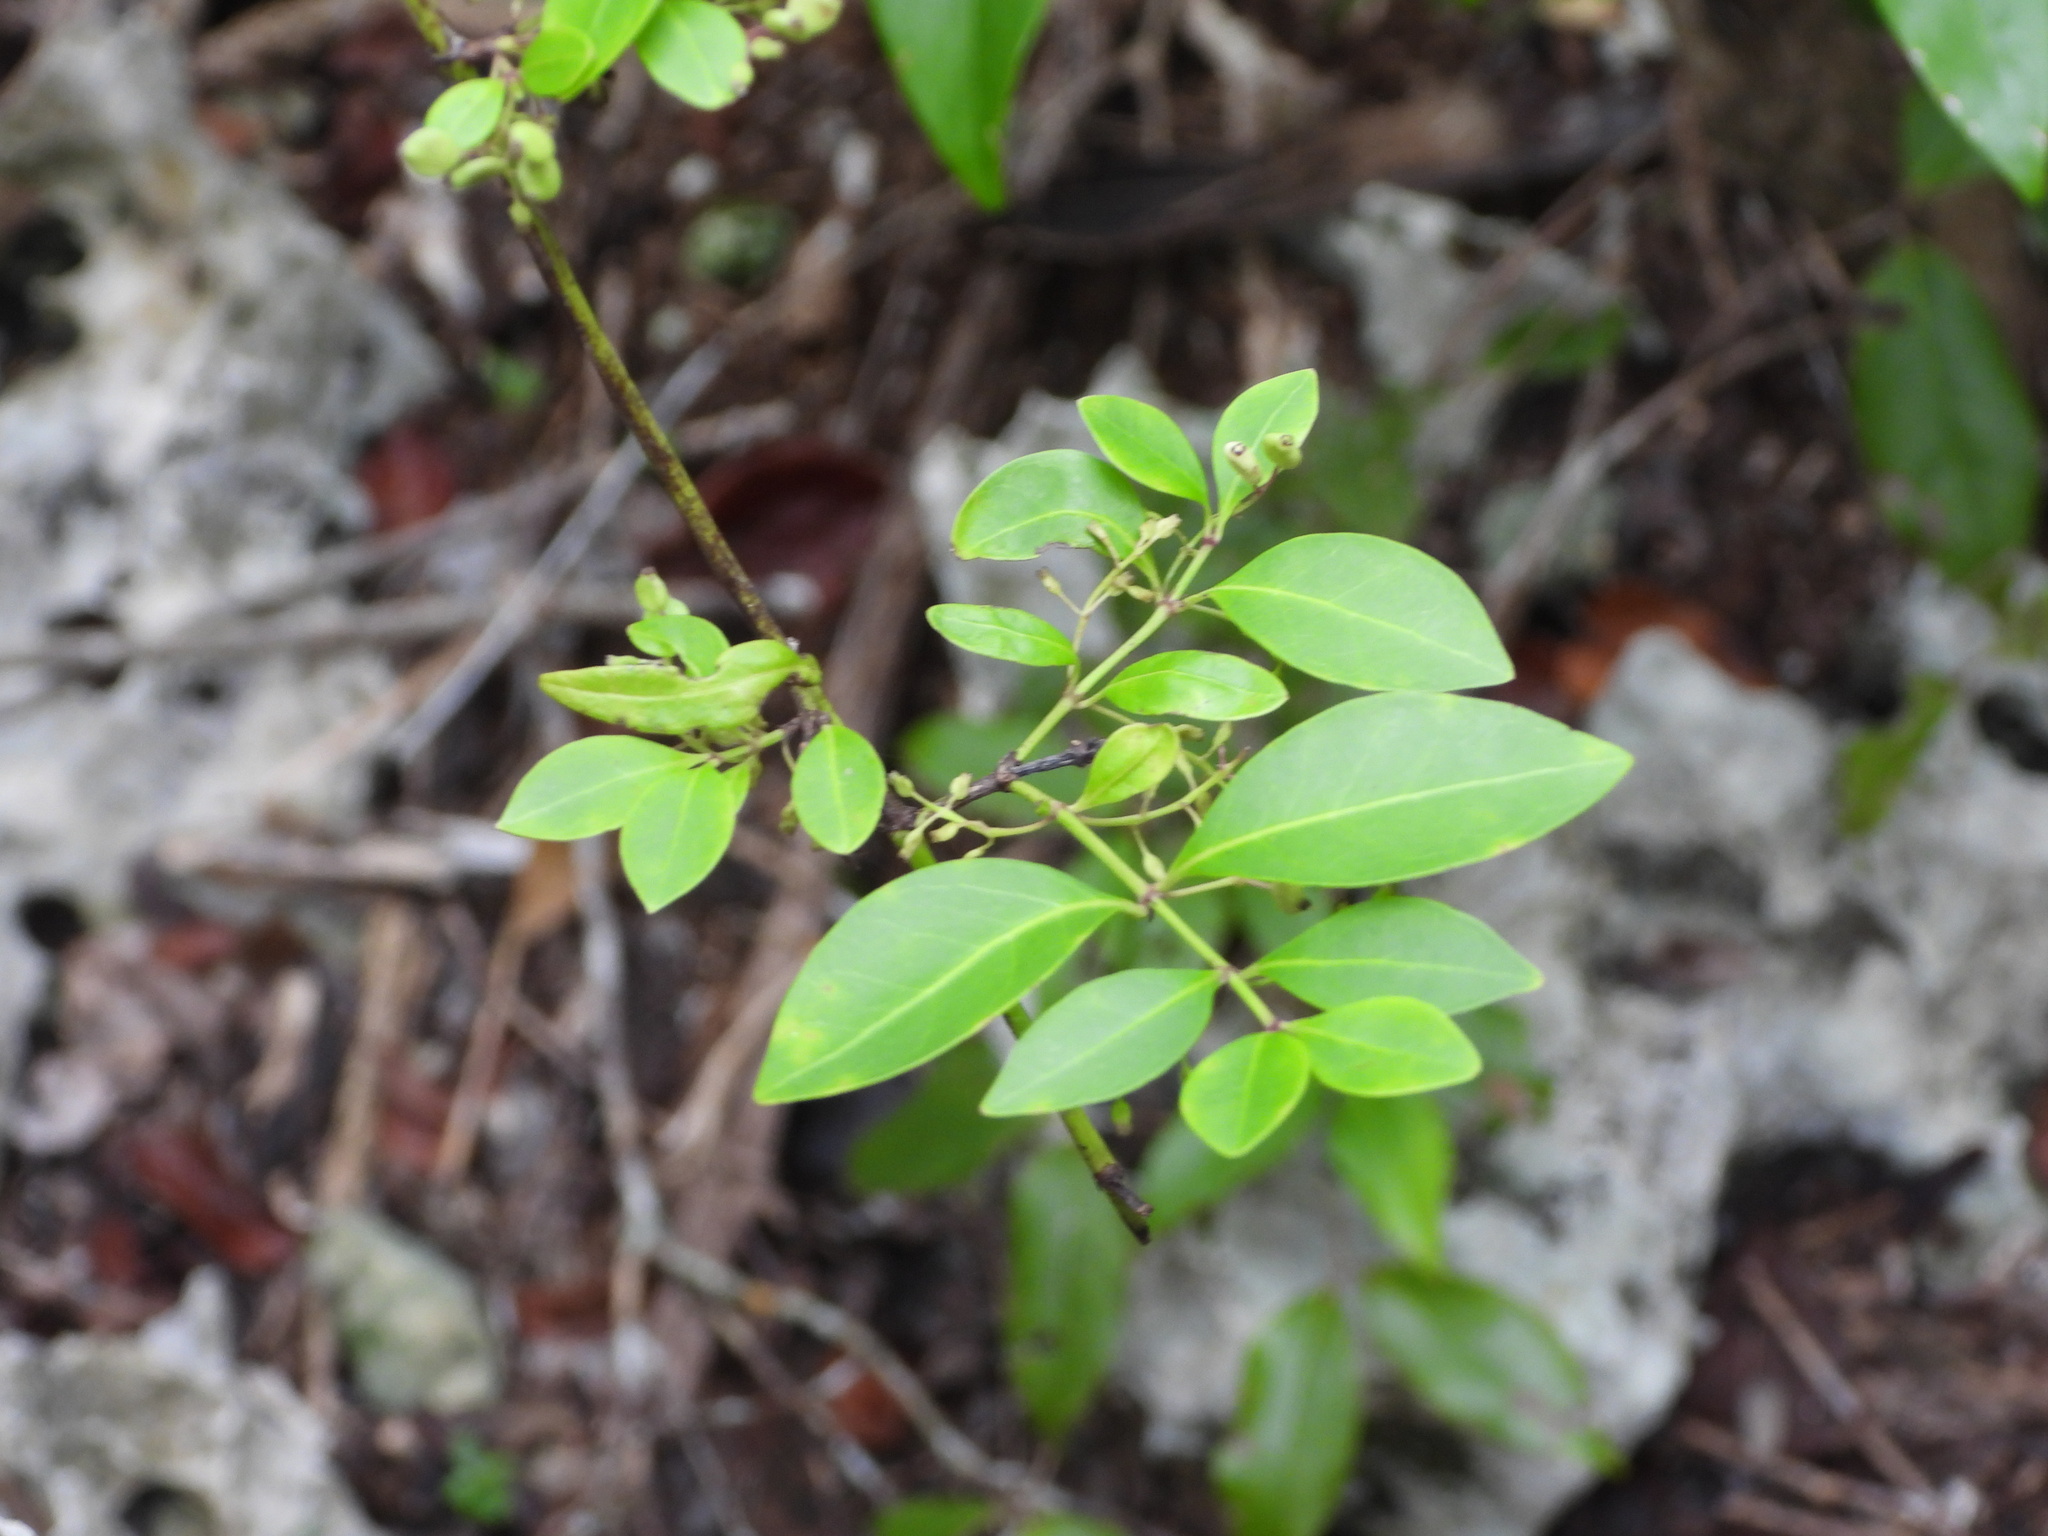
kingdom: Plantae
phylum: Tracheophyta
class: Magnoliopsida
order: Gentianales
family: Rubiaceae
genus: Chiococca
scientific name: Chiococca alba
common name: Snowberry
